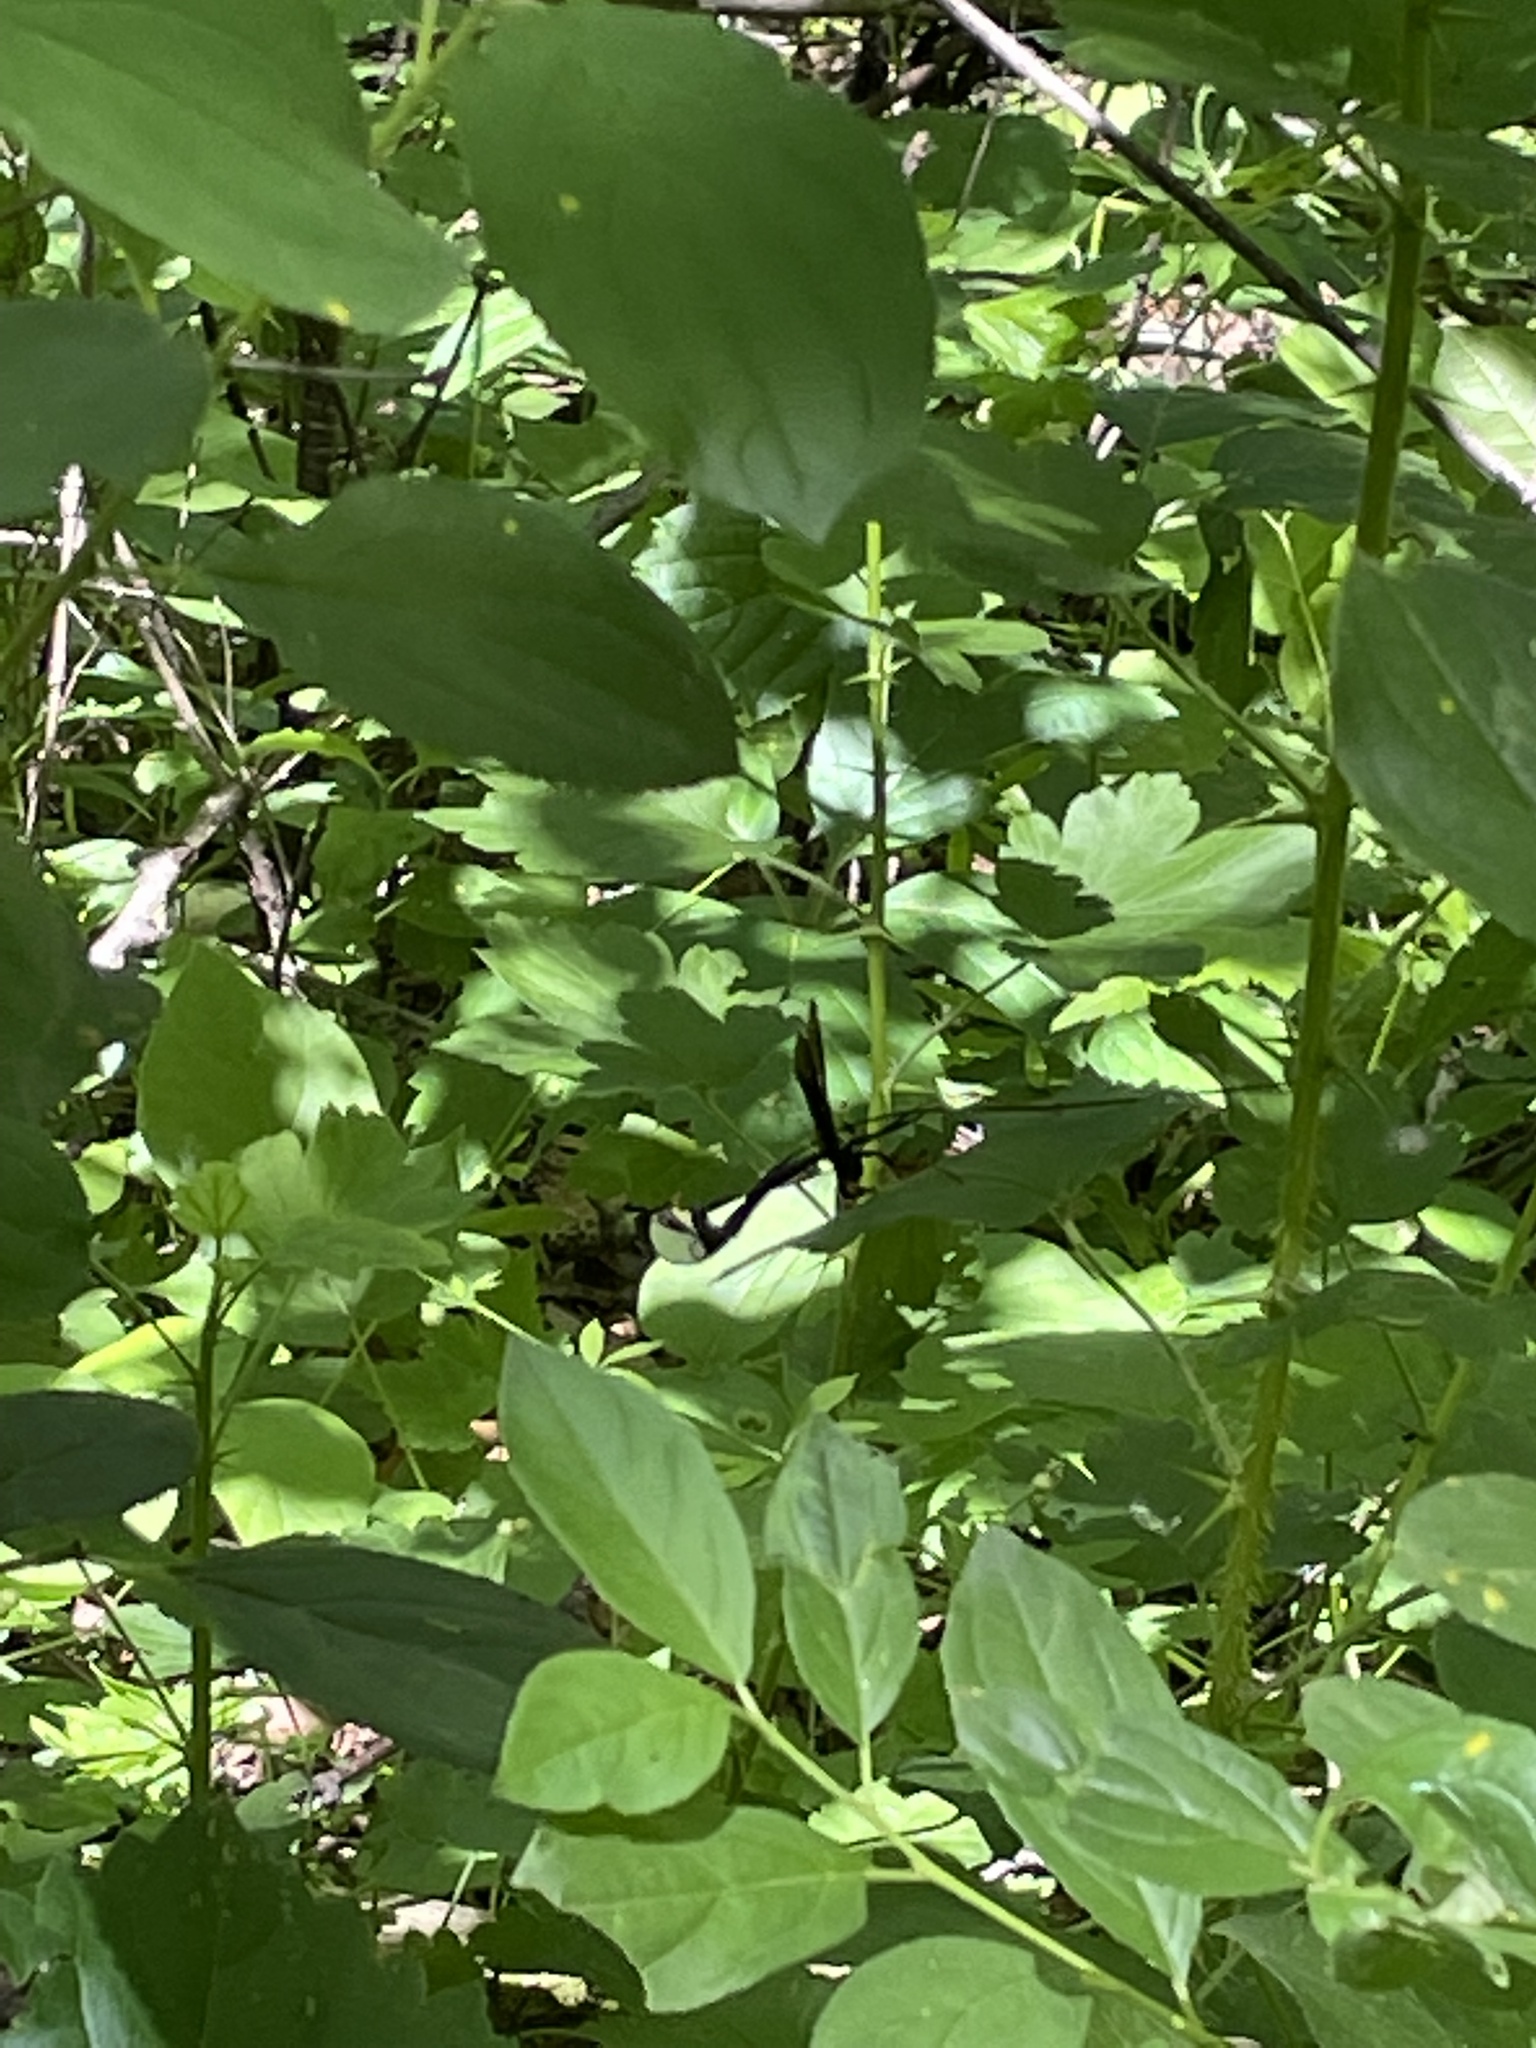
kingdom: Animalia
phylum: Arthropoda
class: Insecta
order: Hymenoptera
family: Ichneumonidae
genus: Megarhyssa
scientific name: Megarhyssa atrata
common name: Black giant ichneumonid wasp
